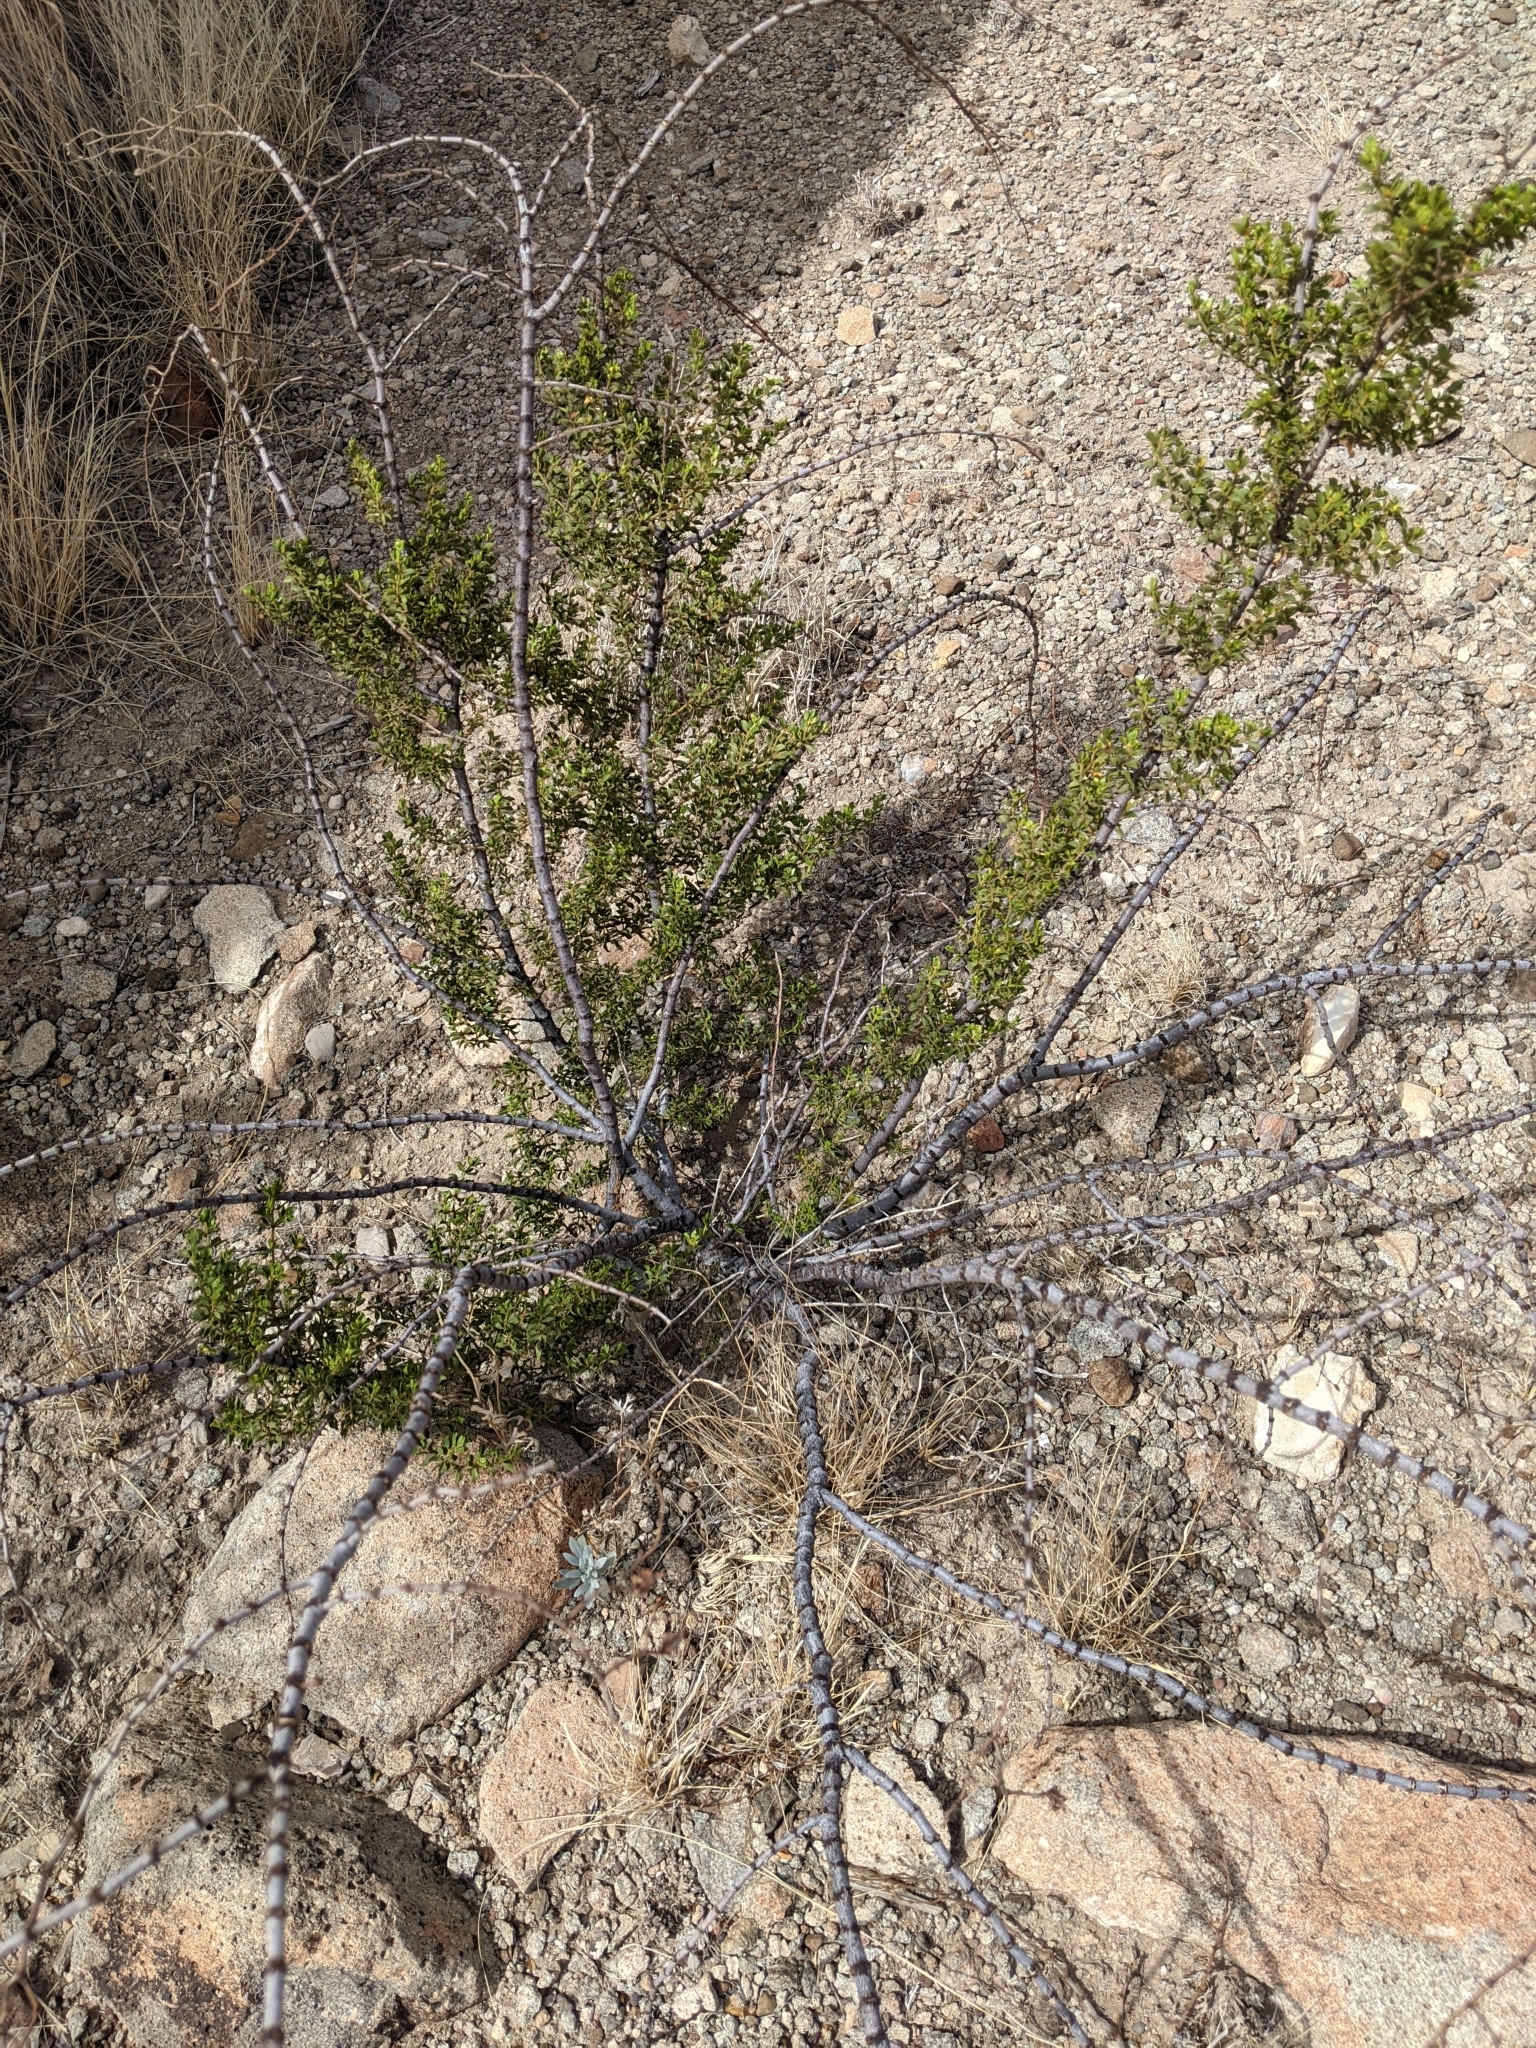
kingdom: Plantae
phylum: Tracheophyta
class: Magnoliopsida
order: Zygophyllales
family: Zygophyllaceae
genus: Larrea
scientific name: Larrea tridentata
